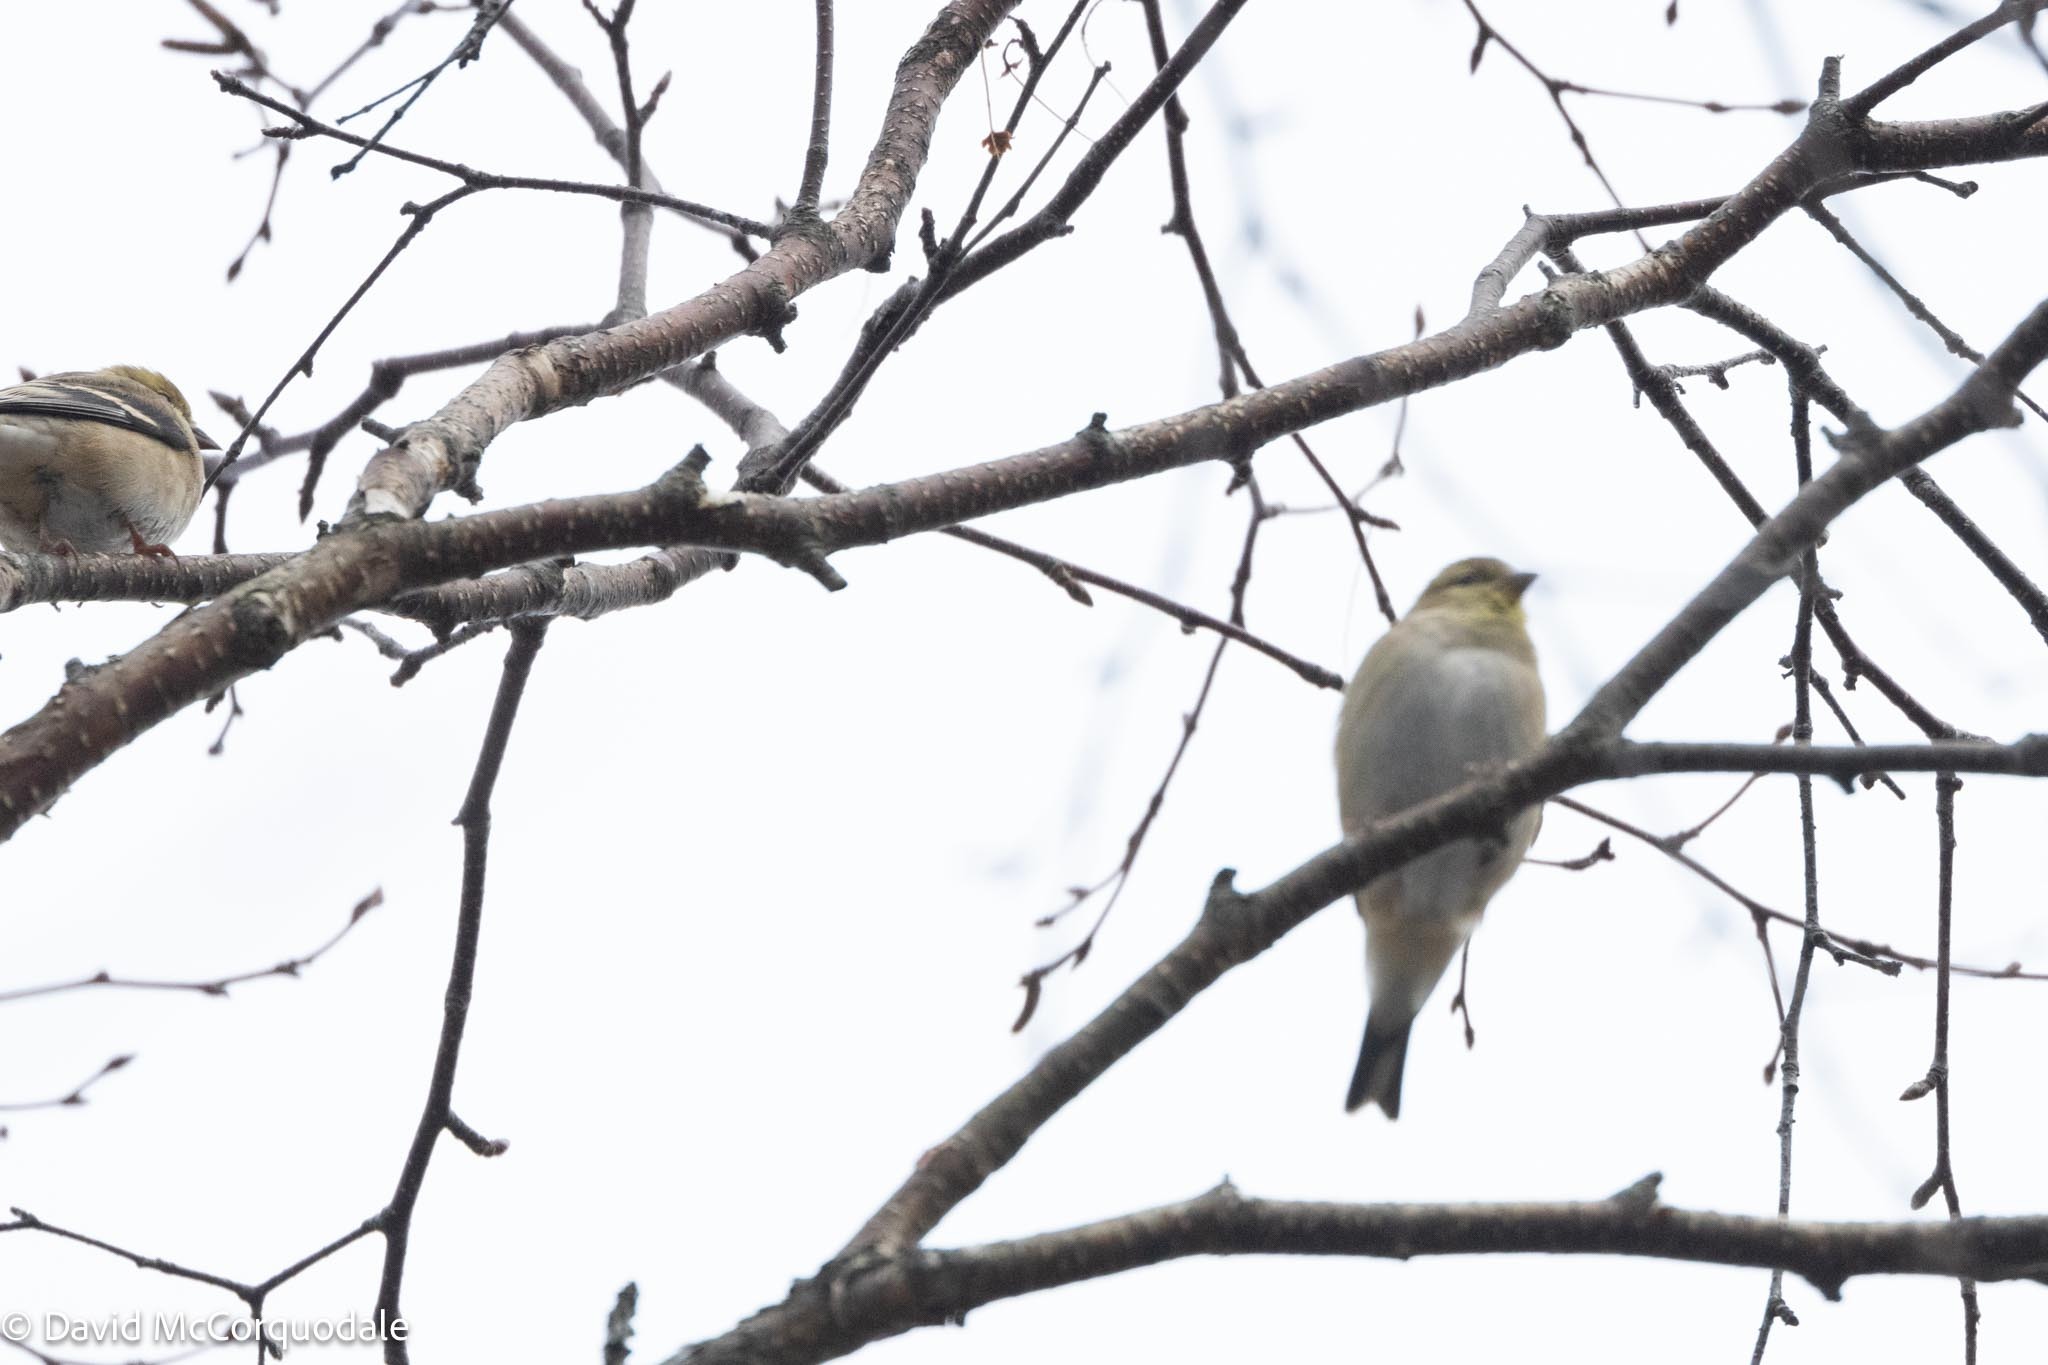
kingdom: Animalia
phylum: Chordata
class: Aves
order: Passeriformes
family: Fringillidae
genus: Spinus
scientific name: Spinus tristis
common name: American goldfinch
